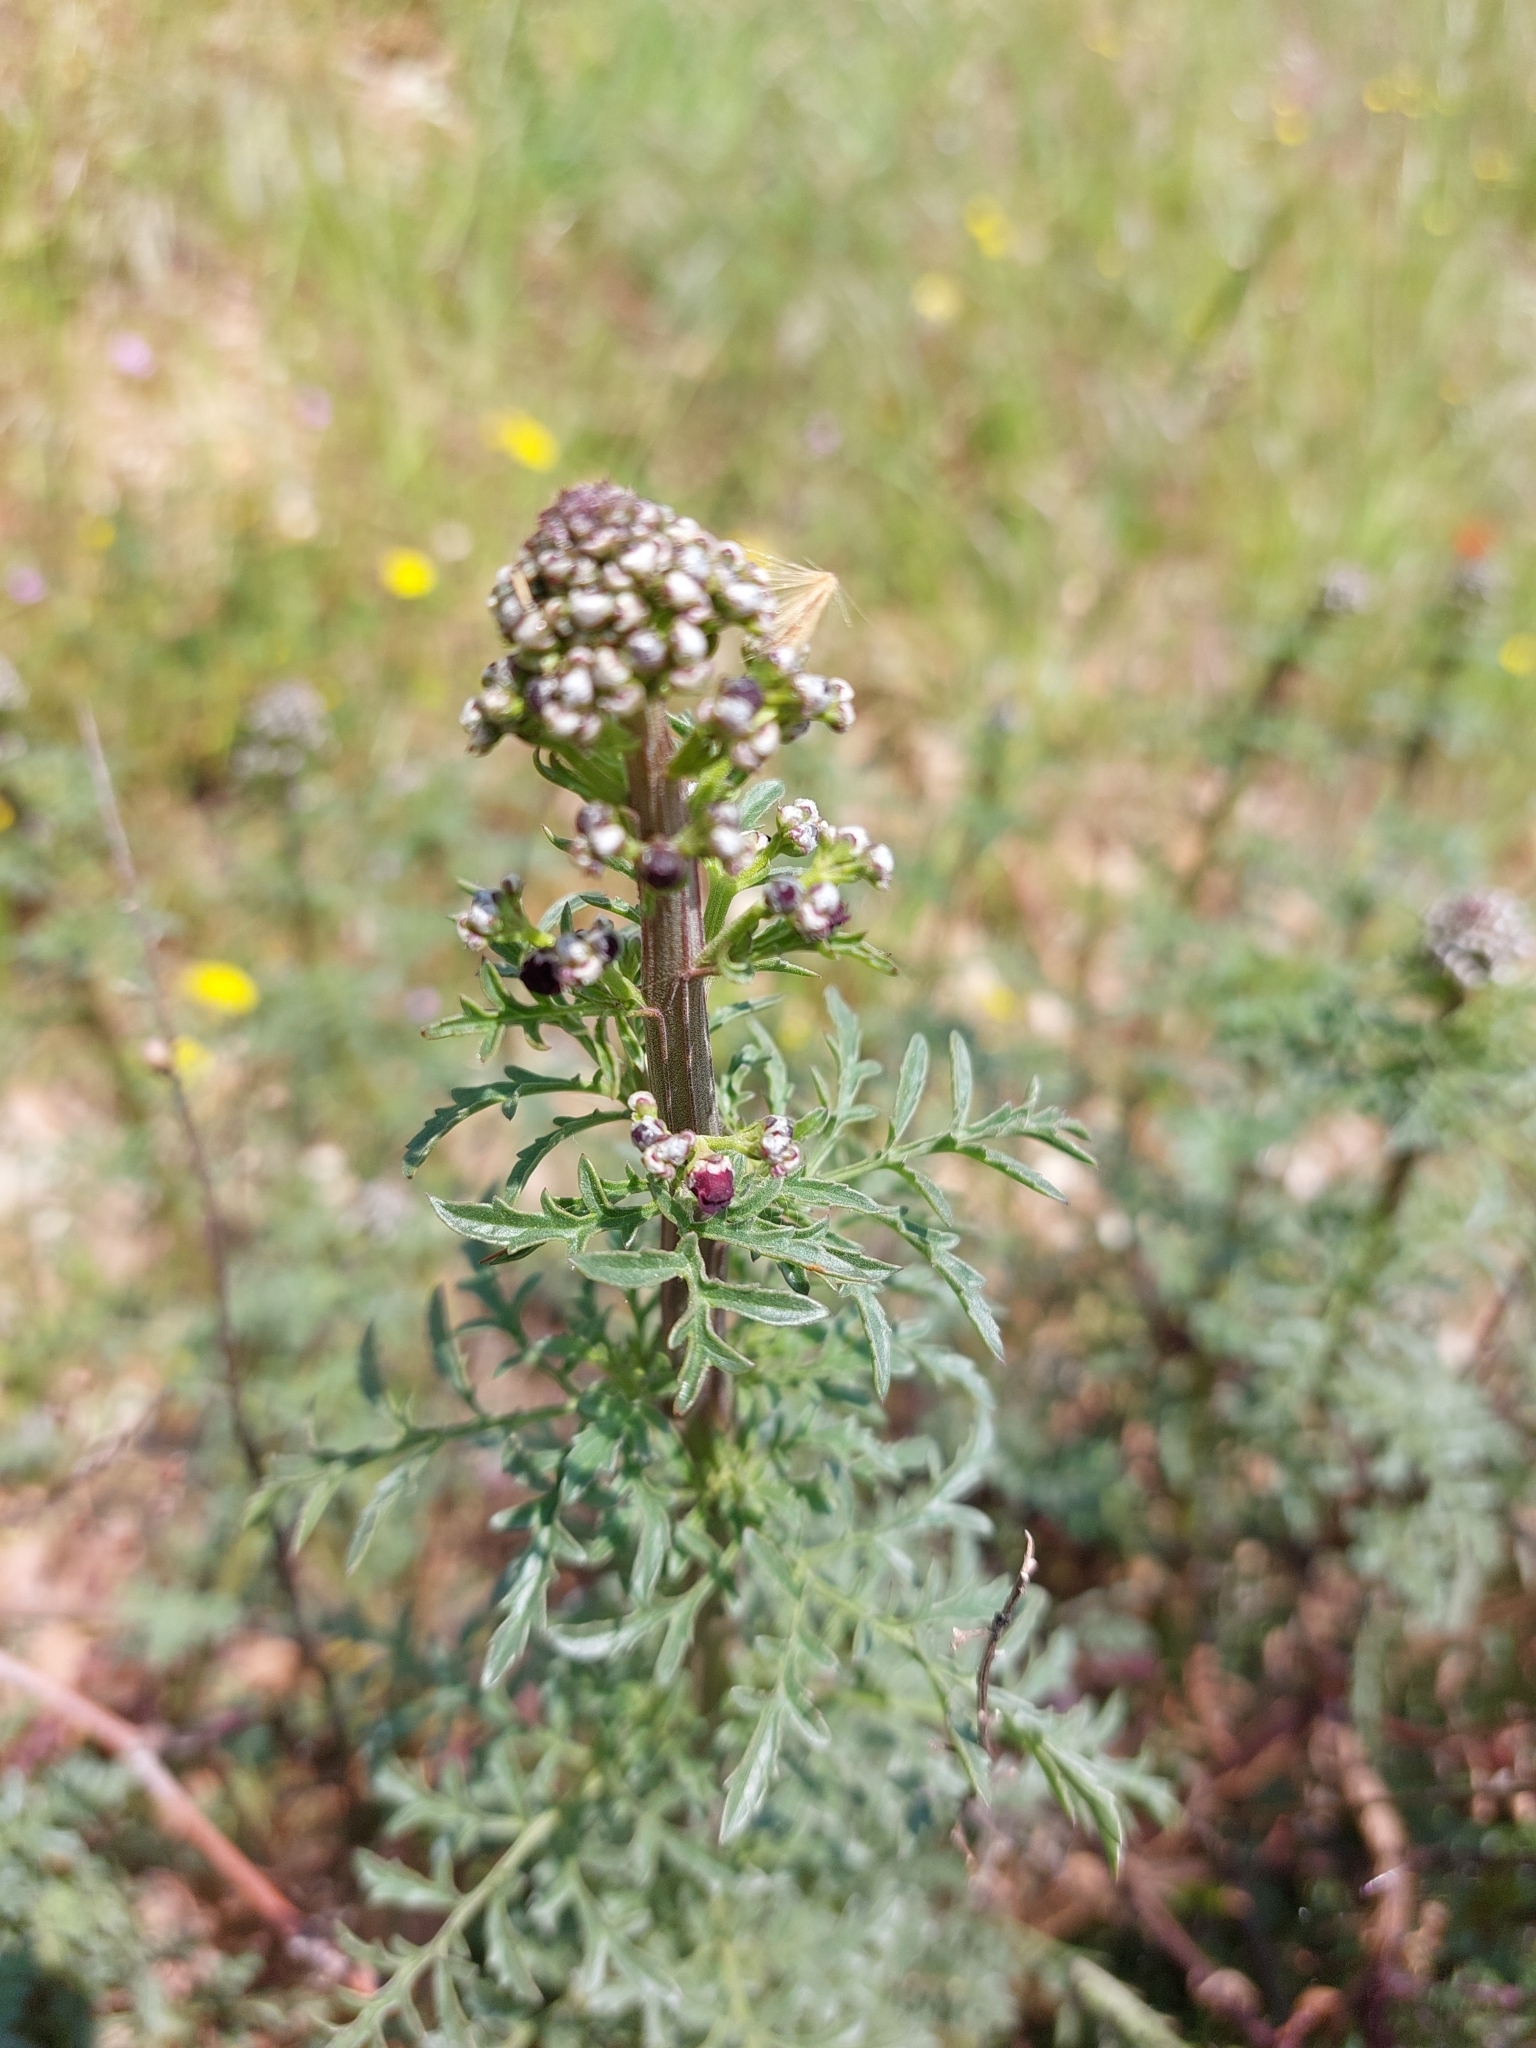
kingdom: Plantae
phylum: Tracheophyta
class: Magnoliopsida
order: Lamiales
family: Scrophulariaceae
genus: Scrophularia
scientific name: Scrophularia canina
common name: French figwort
